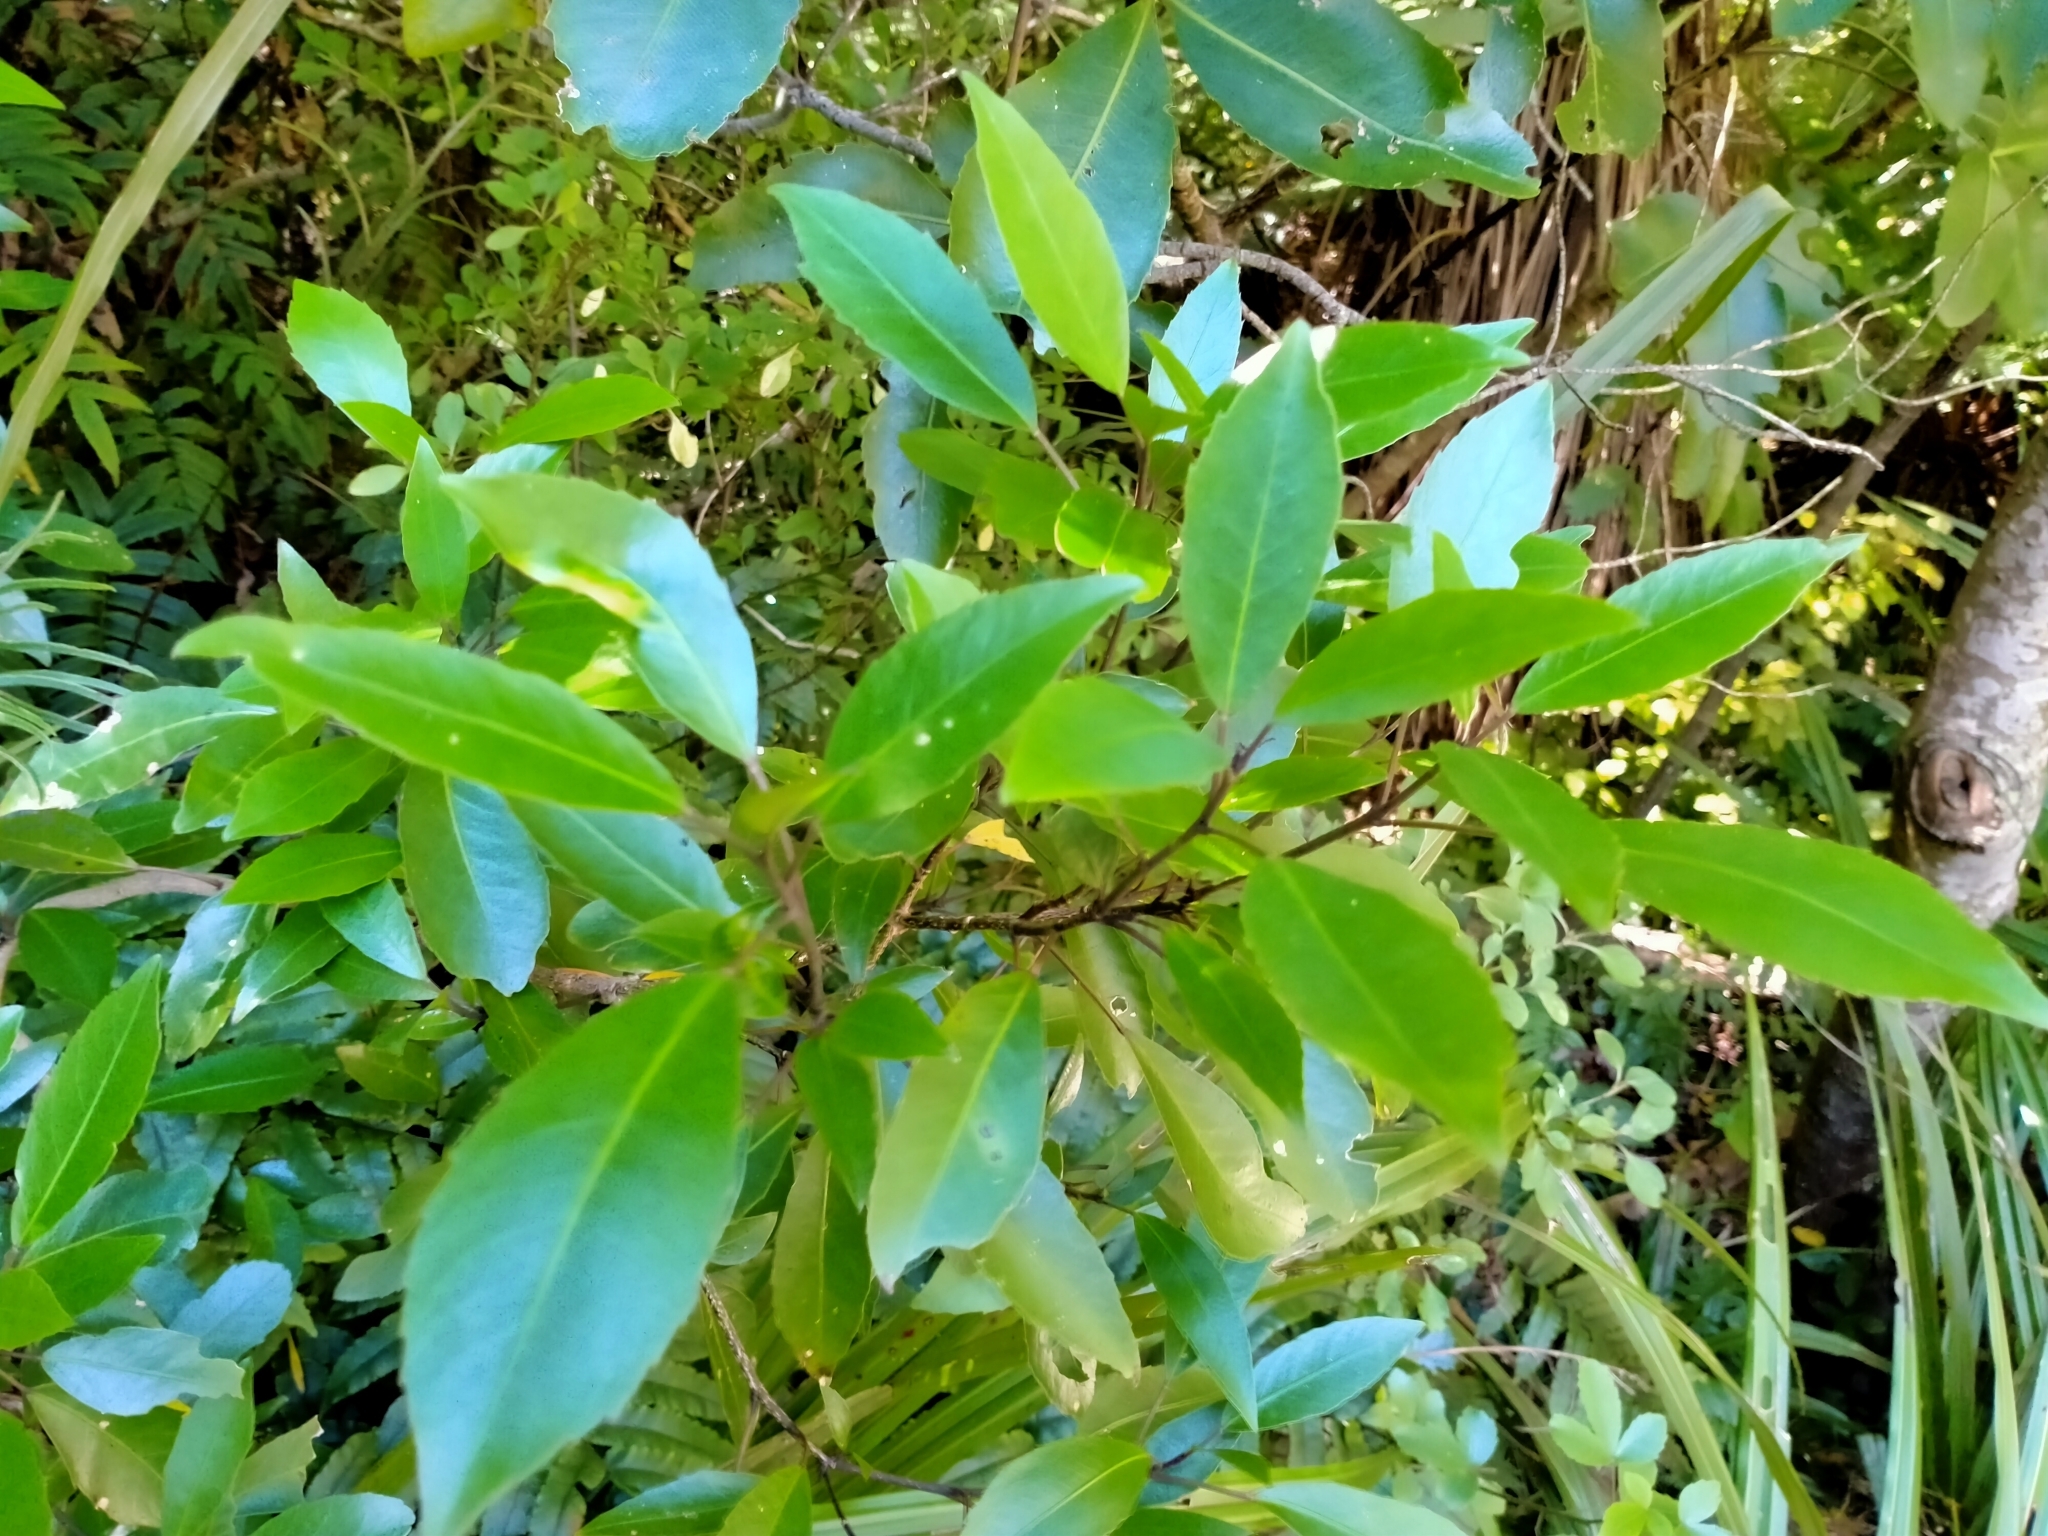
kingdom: Plantae
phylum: Tracheophyta
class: Magnoliopsida
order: Apiales
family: Araliaceae
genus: Raukaua
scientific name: Raukaua simplex
